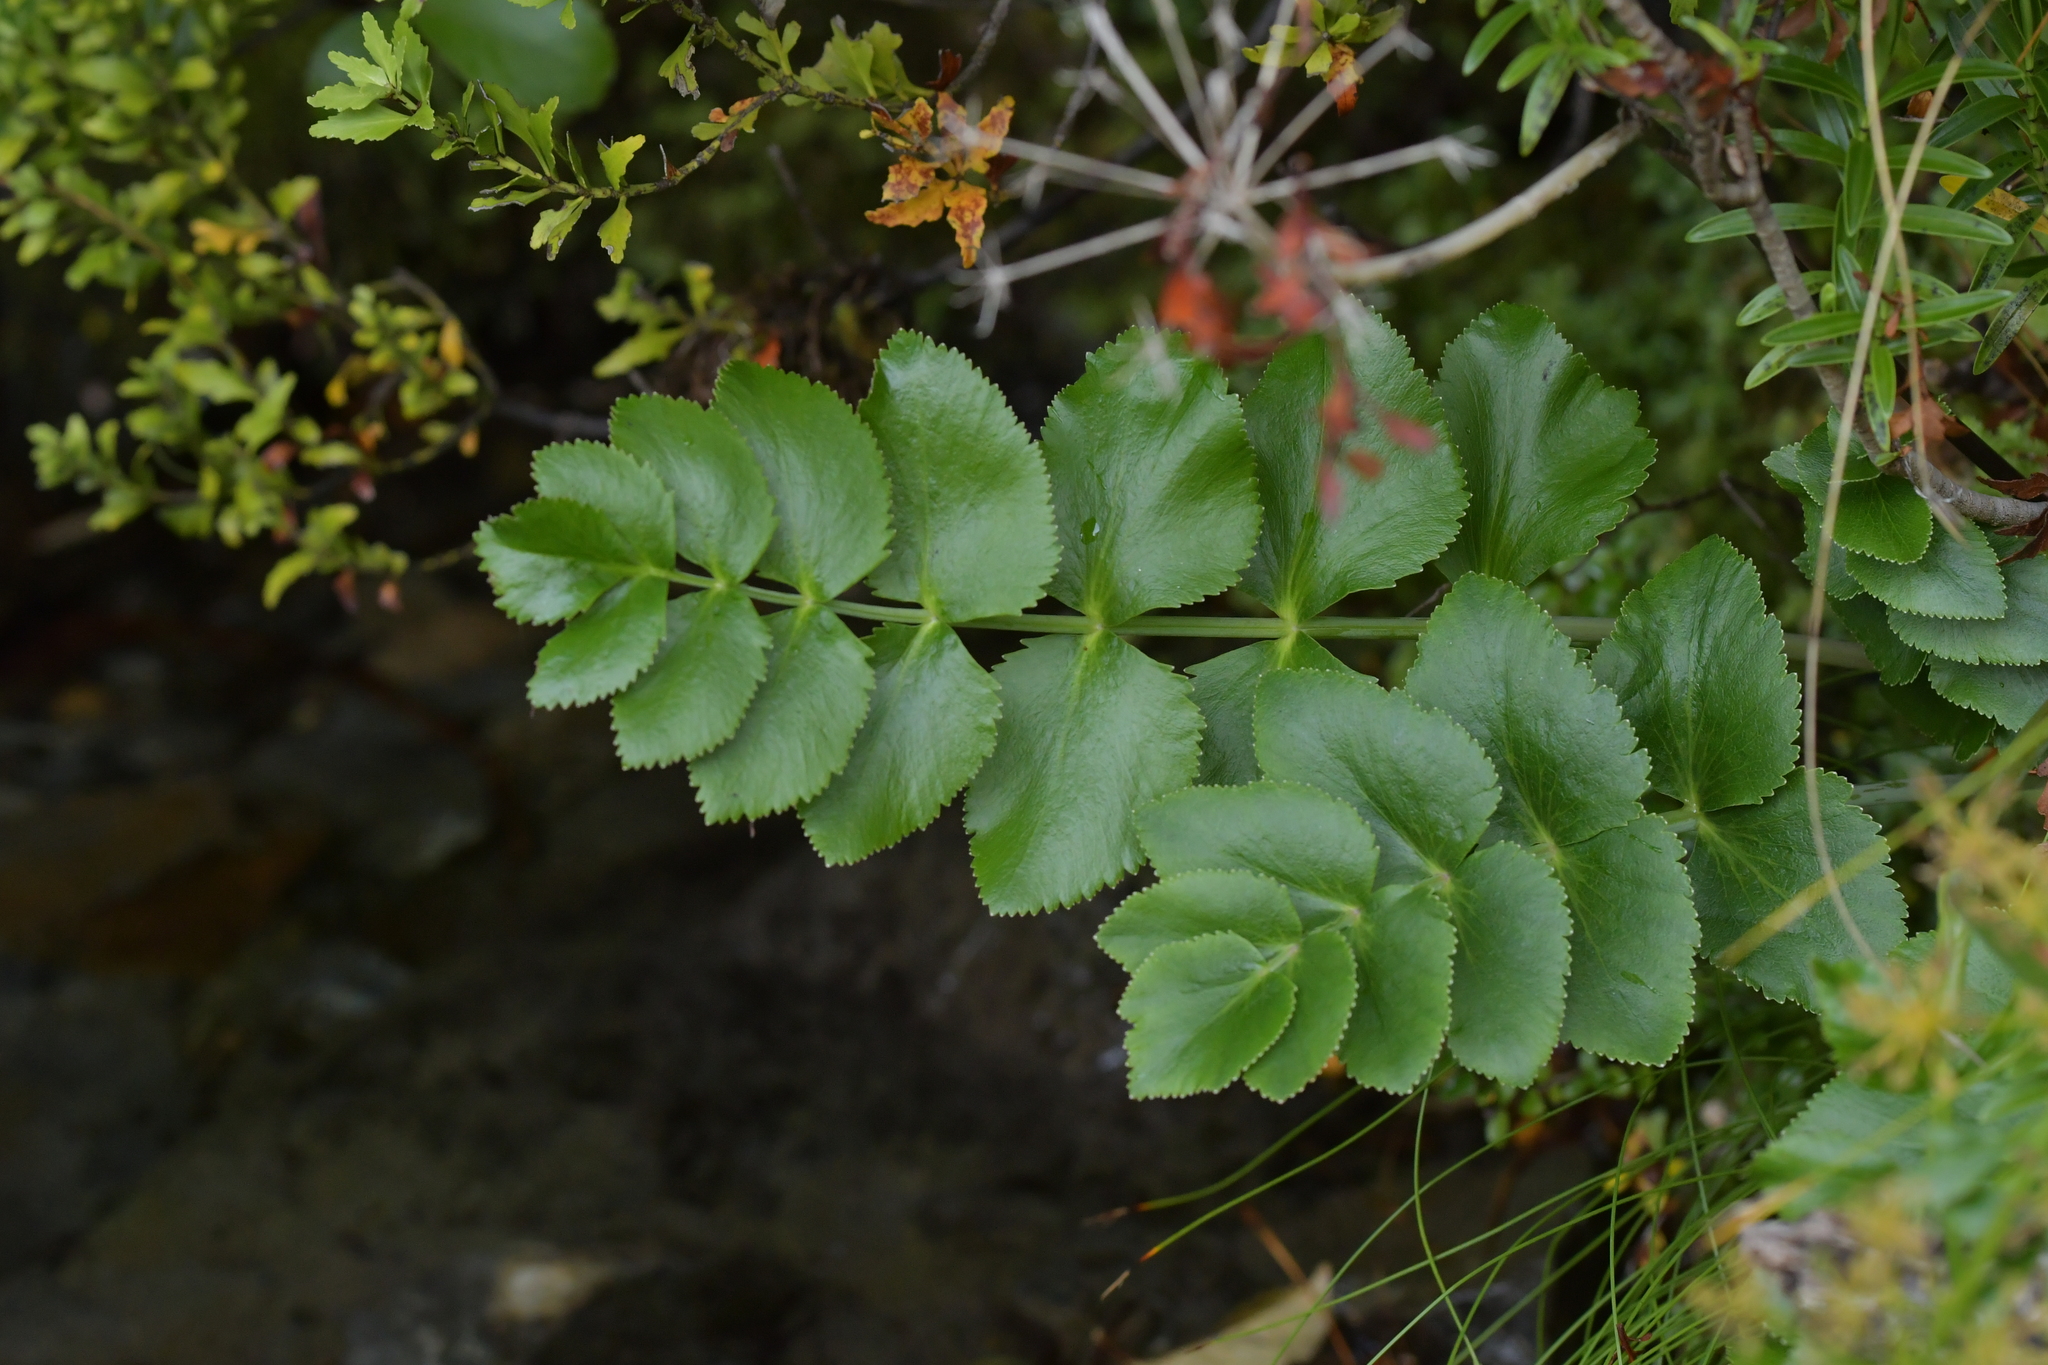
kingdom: Plantae
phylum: Tracheophyta
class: Magnoliopsida
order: Apiales
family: Apiaceae
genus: Gingidia
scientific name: Gingidia montana
